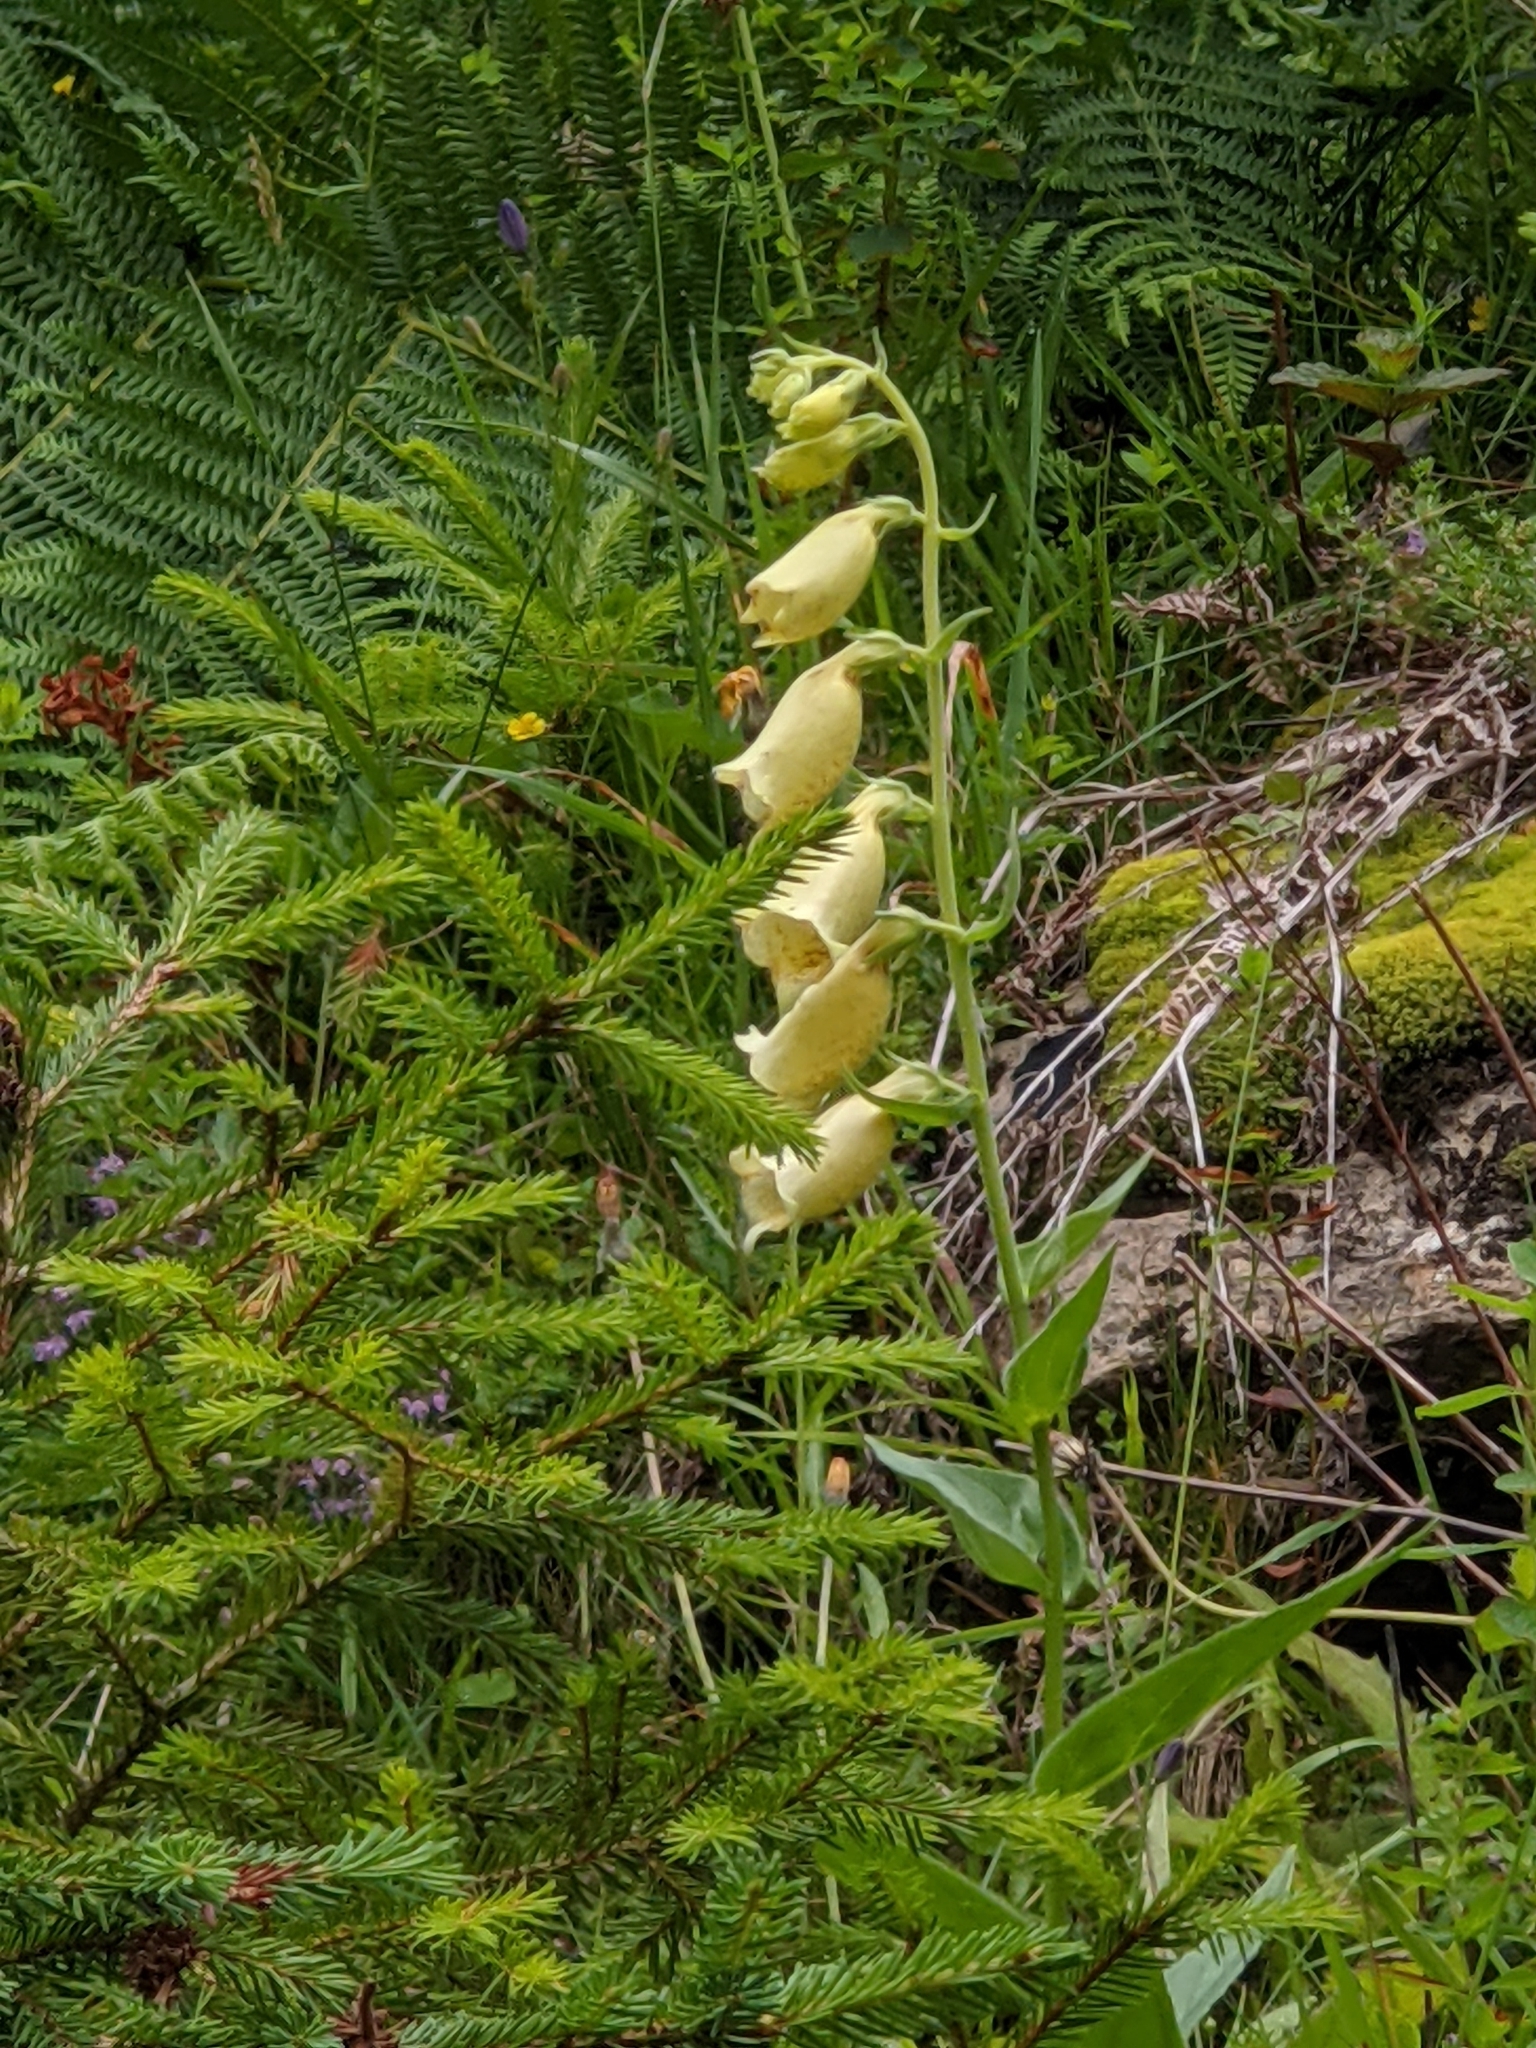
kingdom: Plantae
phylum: Tracheophyta
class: Magnoliopsida
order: Lamiales
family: Plantaginaceae
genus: Digitalis
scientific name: Digitalis grandiflora
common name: Yellow foxglove
